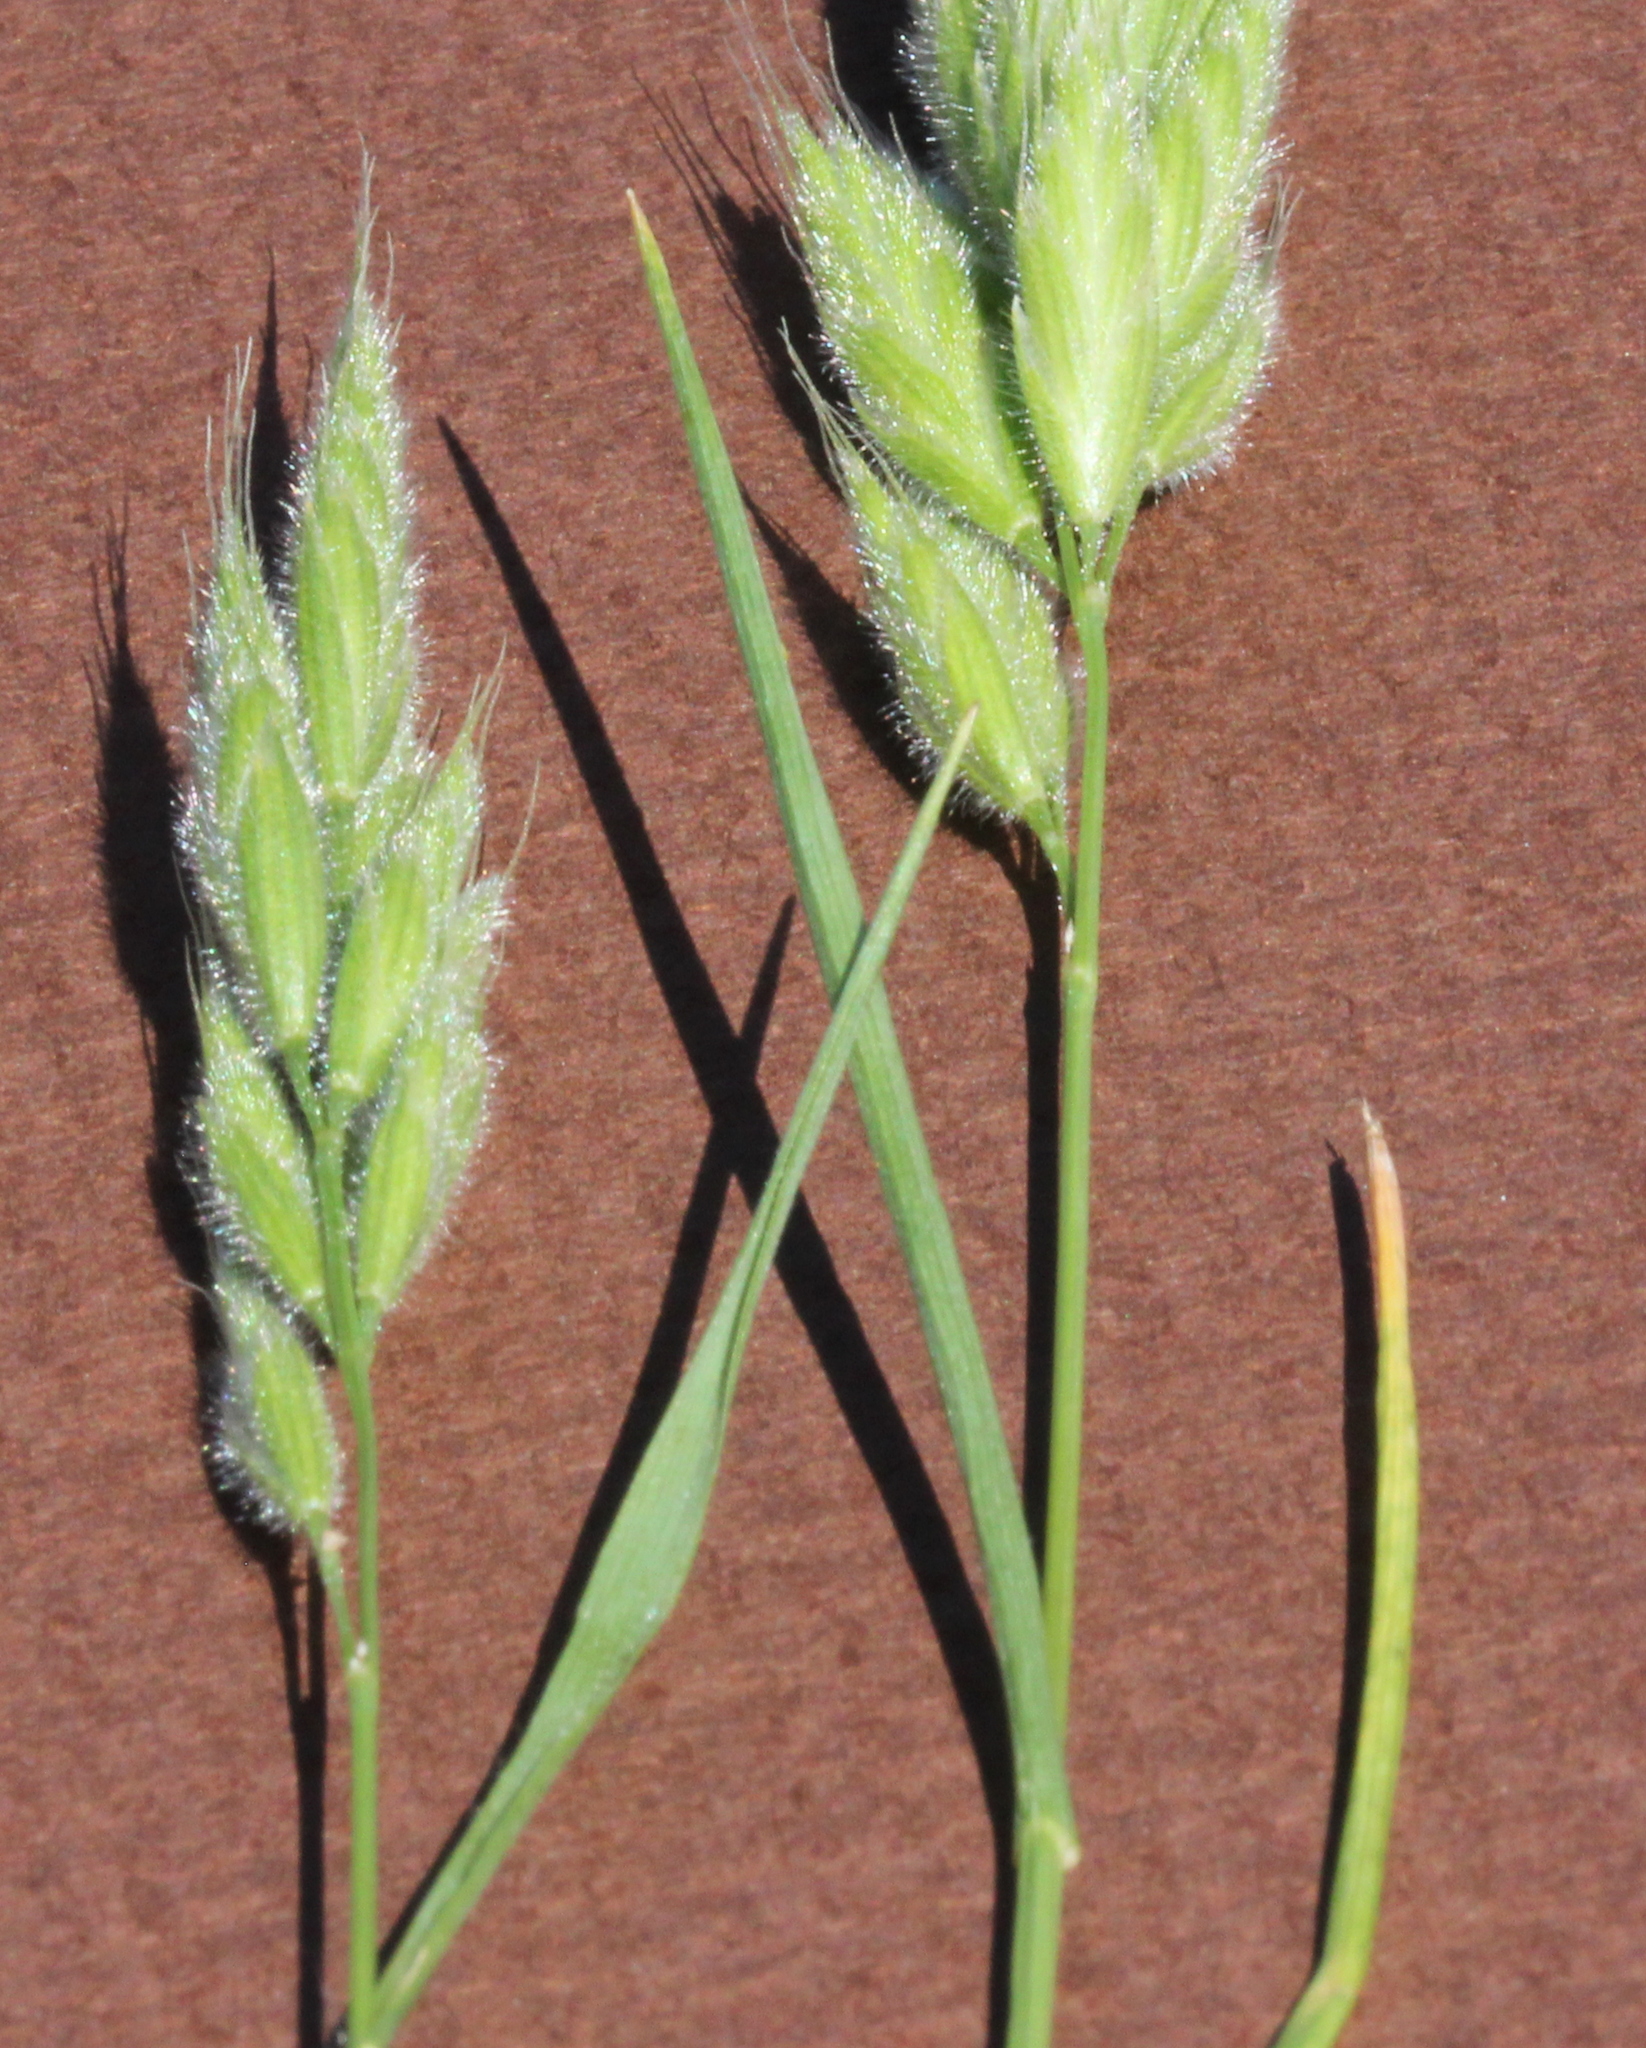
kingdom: Plantae
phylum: Tracheophyta
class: Liliopsida
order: Poales
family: Poaceae
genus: Bromus
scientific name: Bromus hordeaceus
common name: Soft brome
